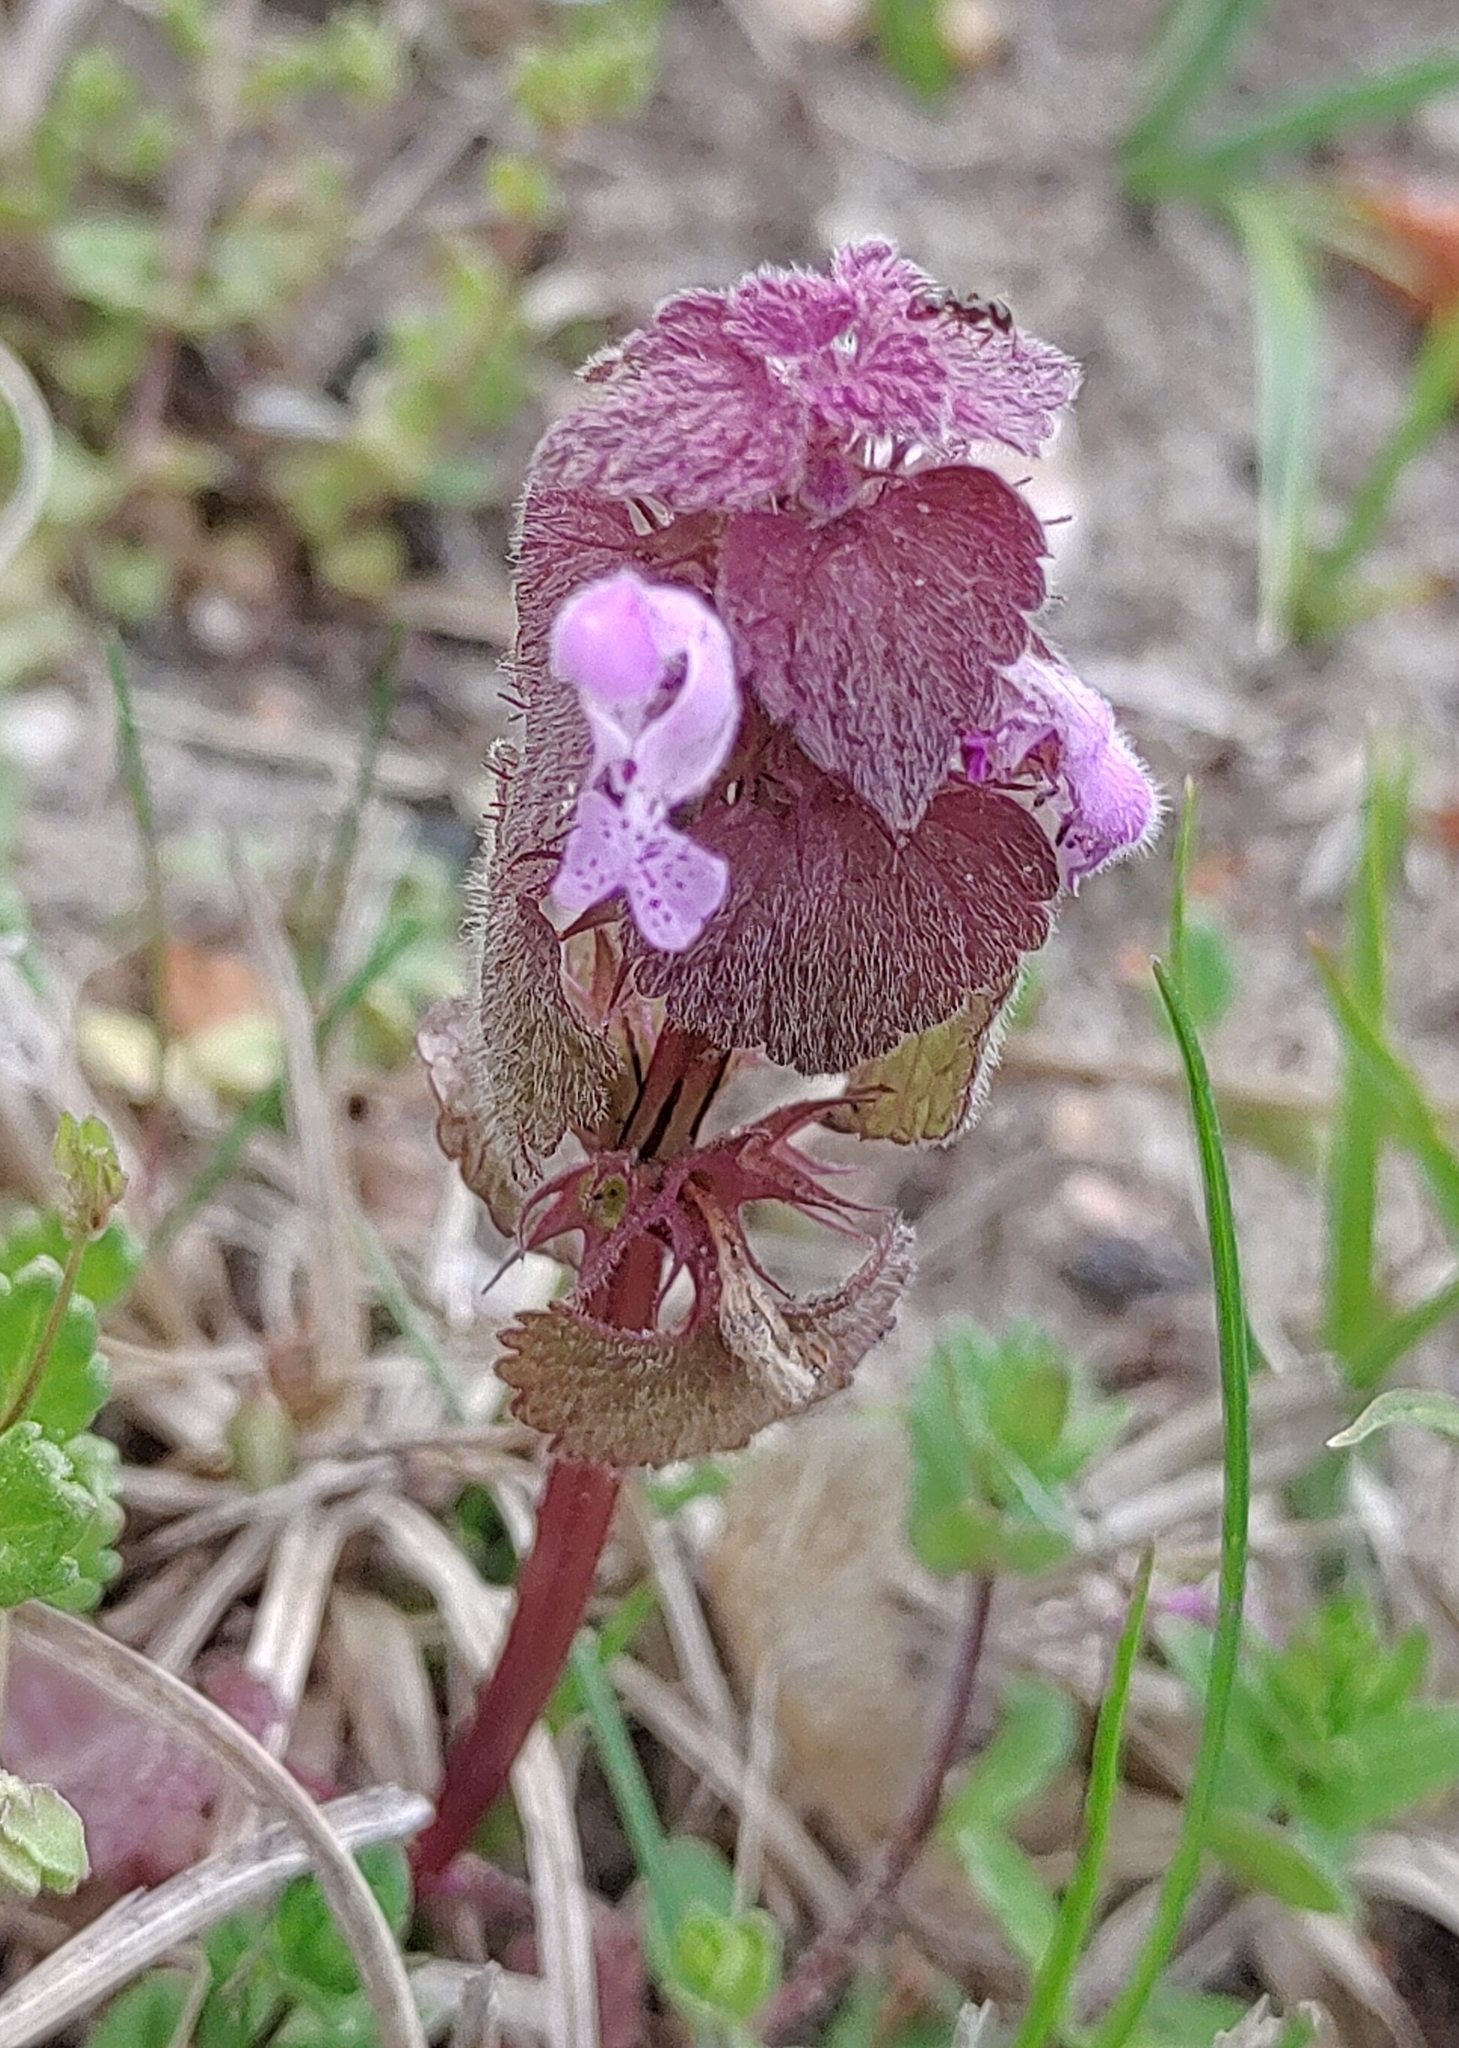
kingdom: Plantae
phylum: Tracheophyta
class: Magnoliopsida
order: Lamiales
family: Lamiaceae
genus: Lamium
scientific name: Lamium purpureum
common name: Red dead-nettle
